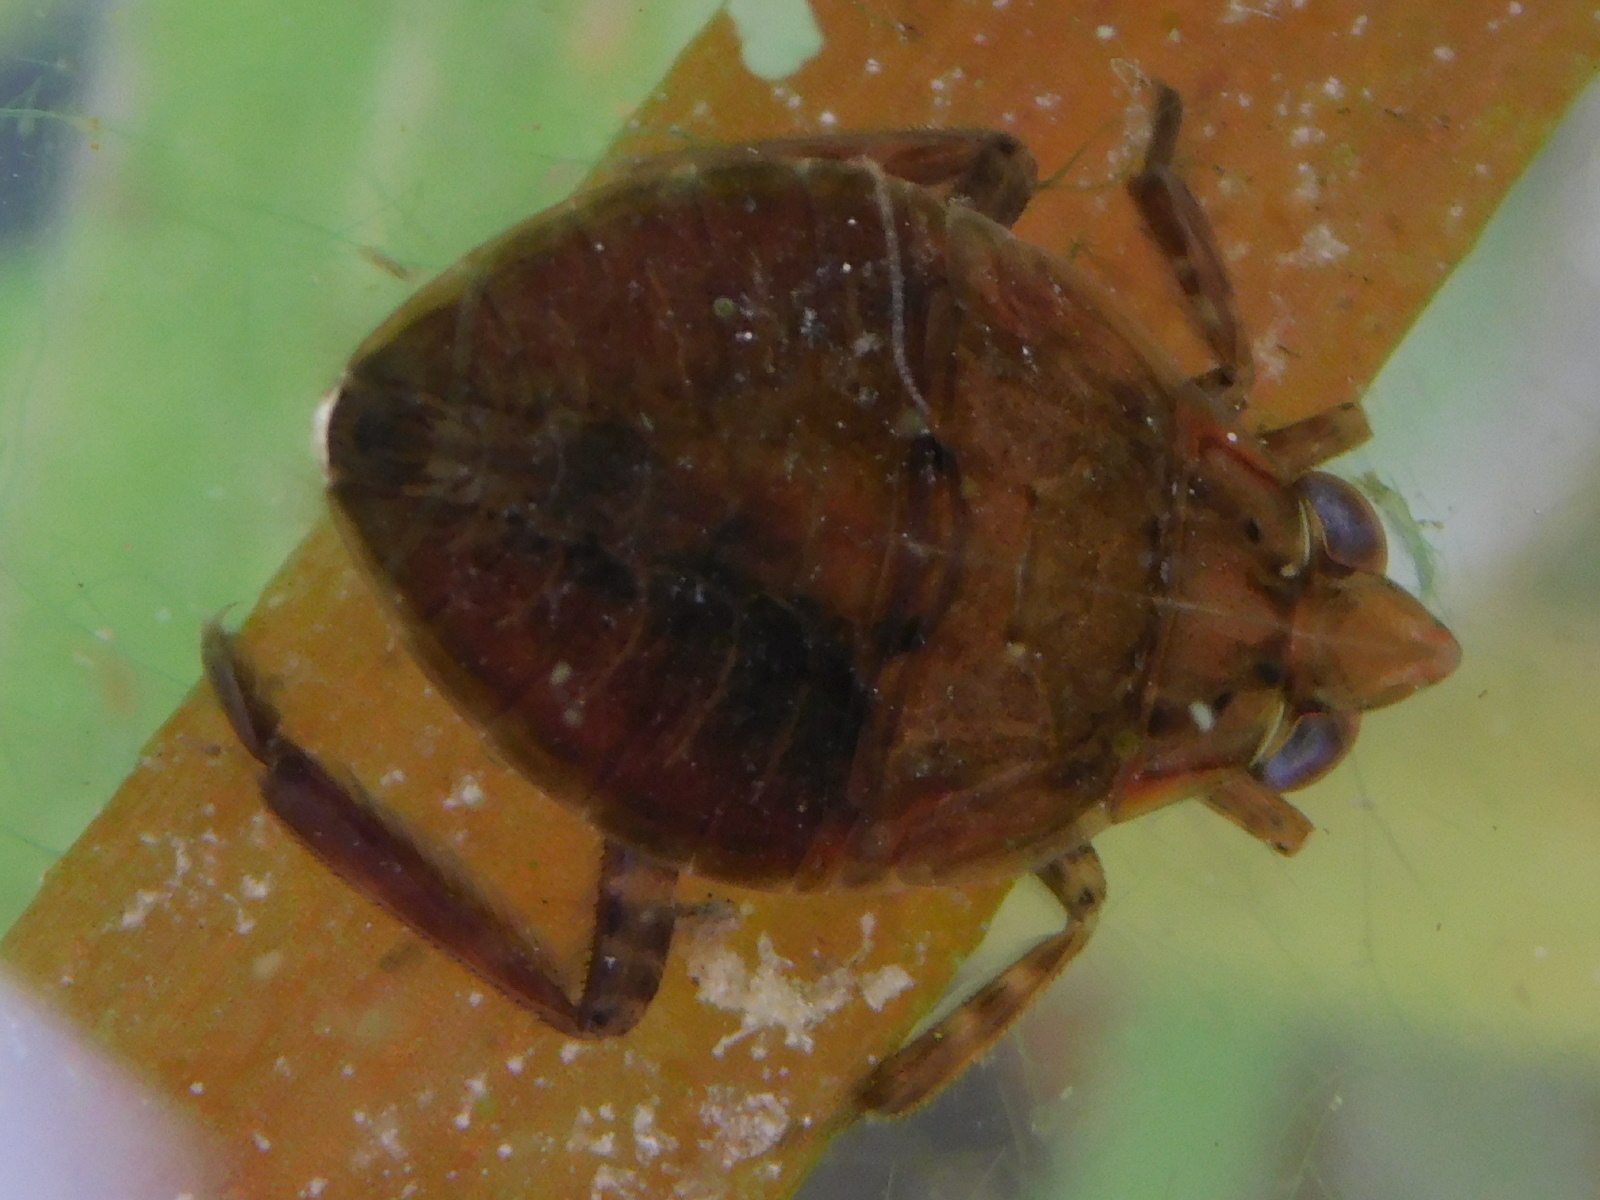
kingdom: Animalia
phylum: Arthropoda
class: Insecta
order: Hemiptera
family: Belostomatidae
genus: Belostoma
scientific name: Belostoma
